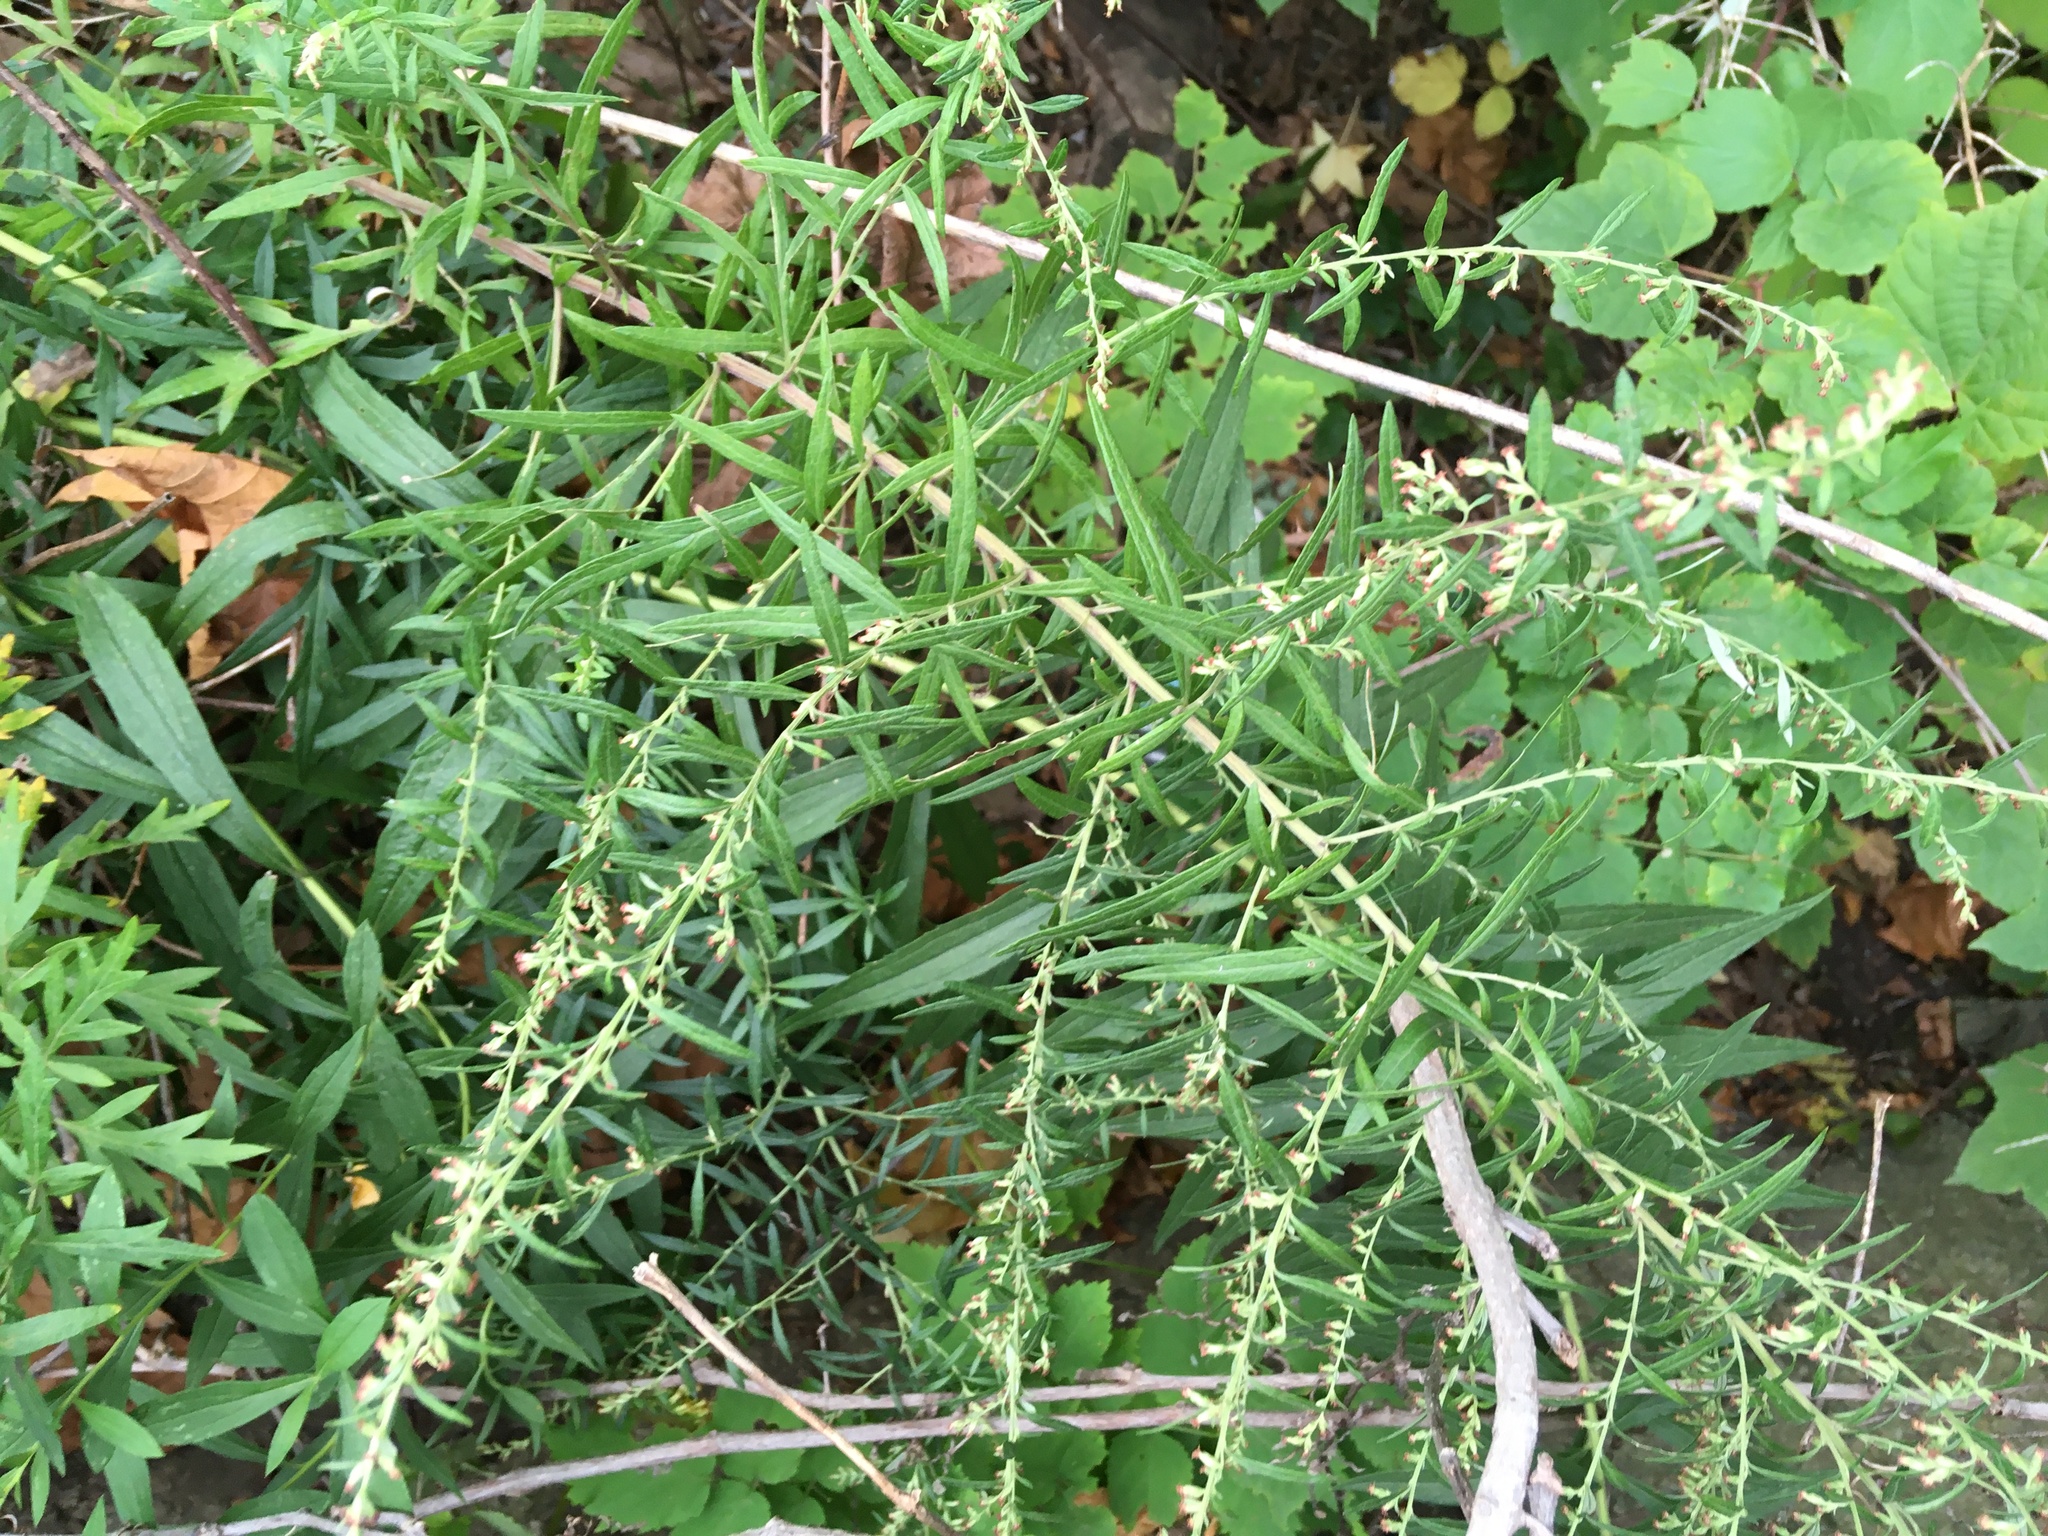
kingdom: Plantae
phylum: Tracheophyta
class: Magnoliopsida
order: Asterales
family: Asteraceae
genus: Artemisia
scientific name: Artemisia vulgaris
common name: Mugwort
